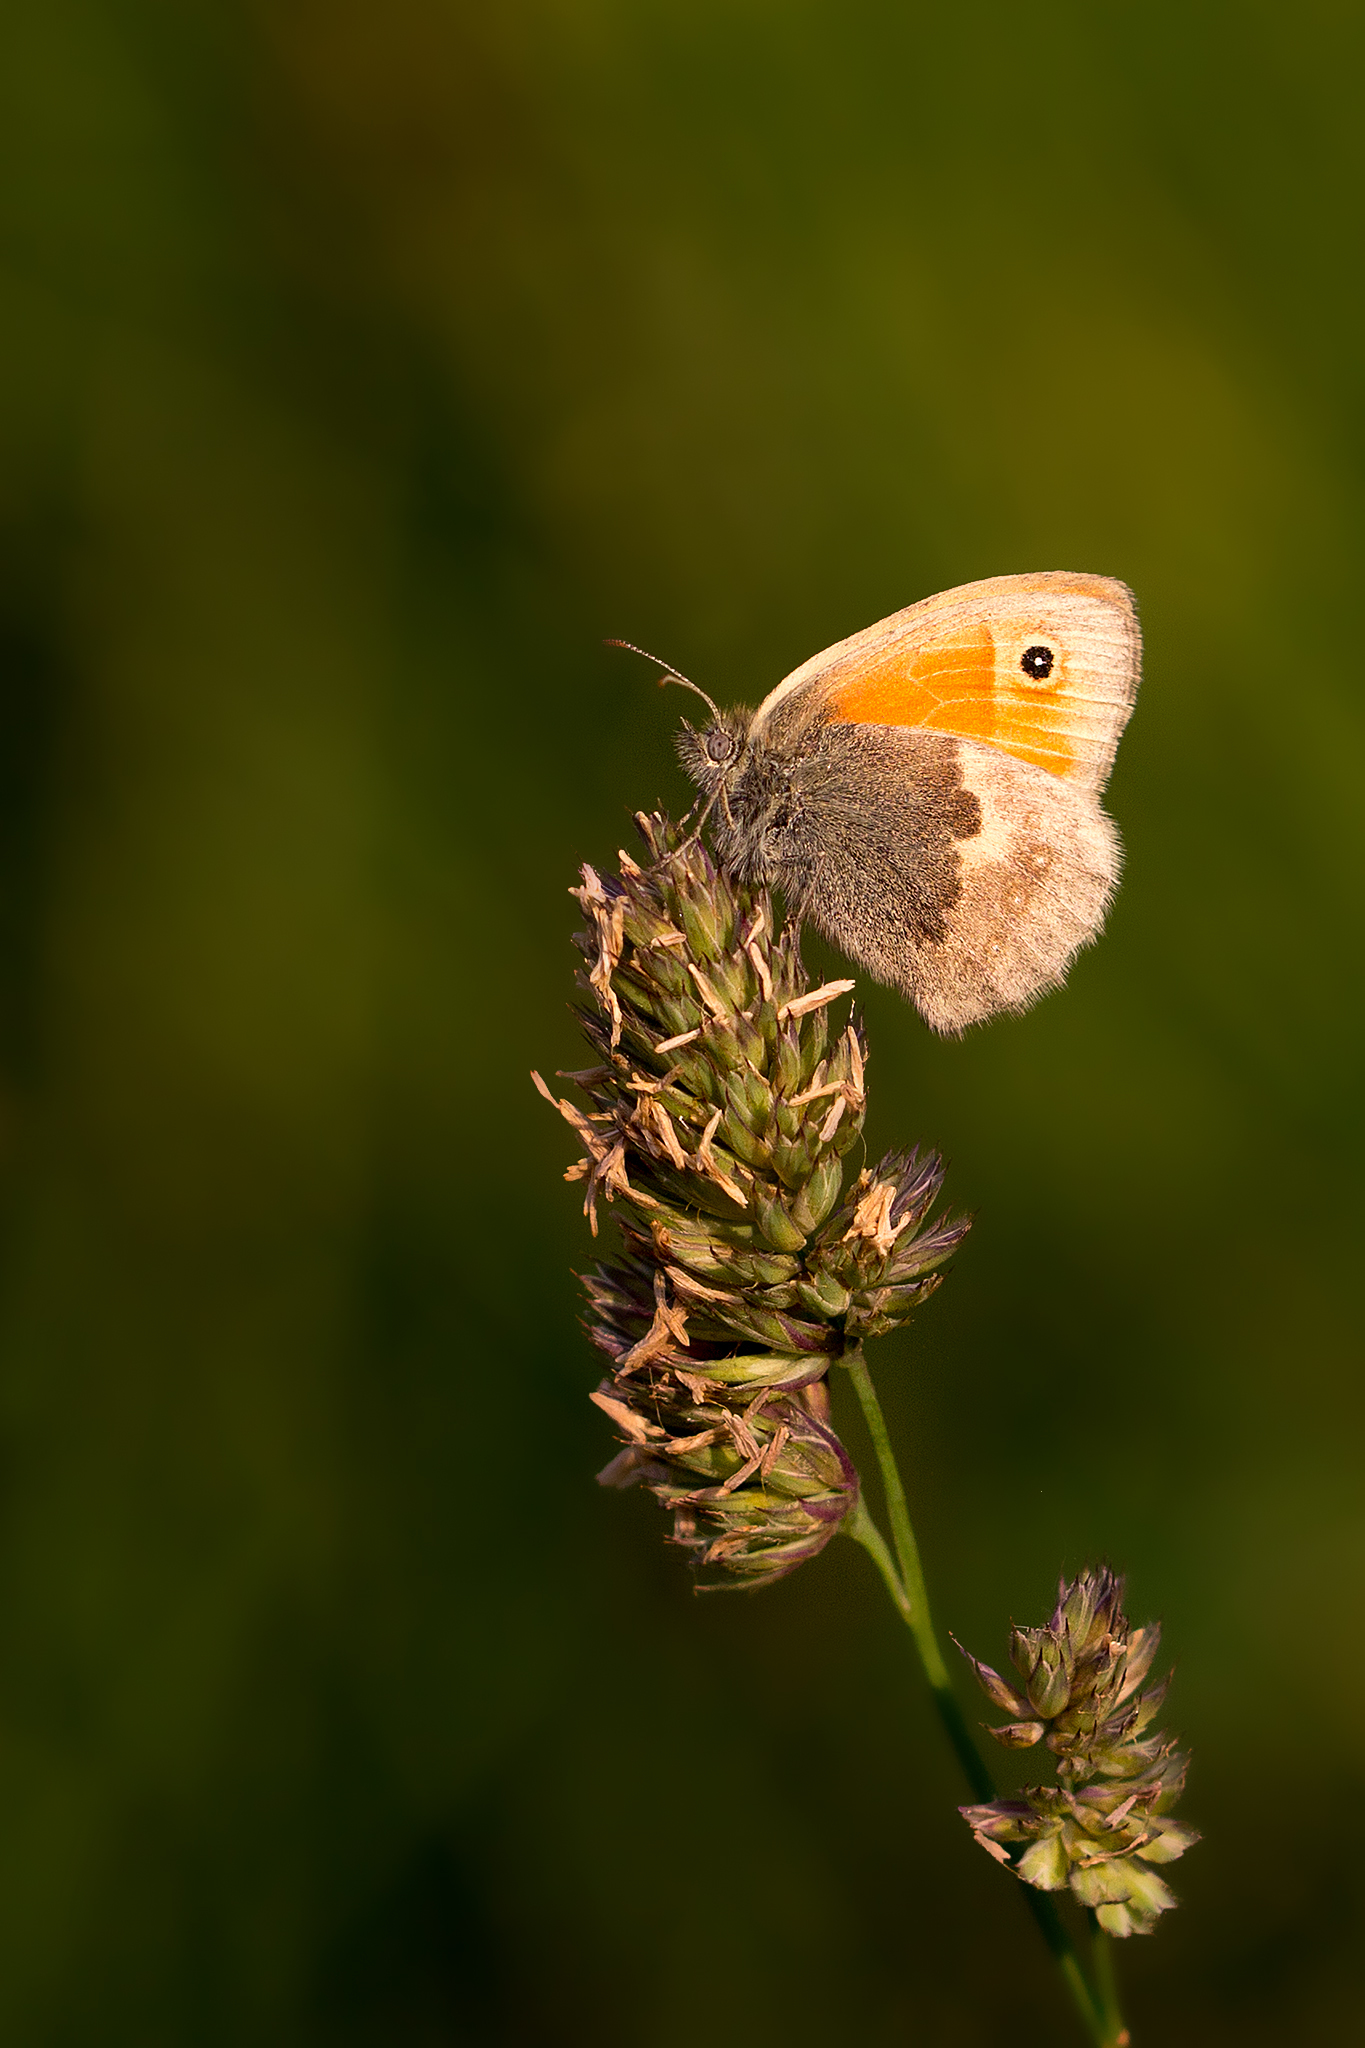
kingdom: Animalia
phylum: Arthropoda
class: Insecta
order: Lepidoptera
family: Nymphalidae
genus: Coenonympha
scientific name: Coenonympha pamphilus
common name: Small heath
